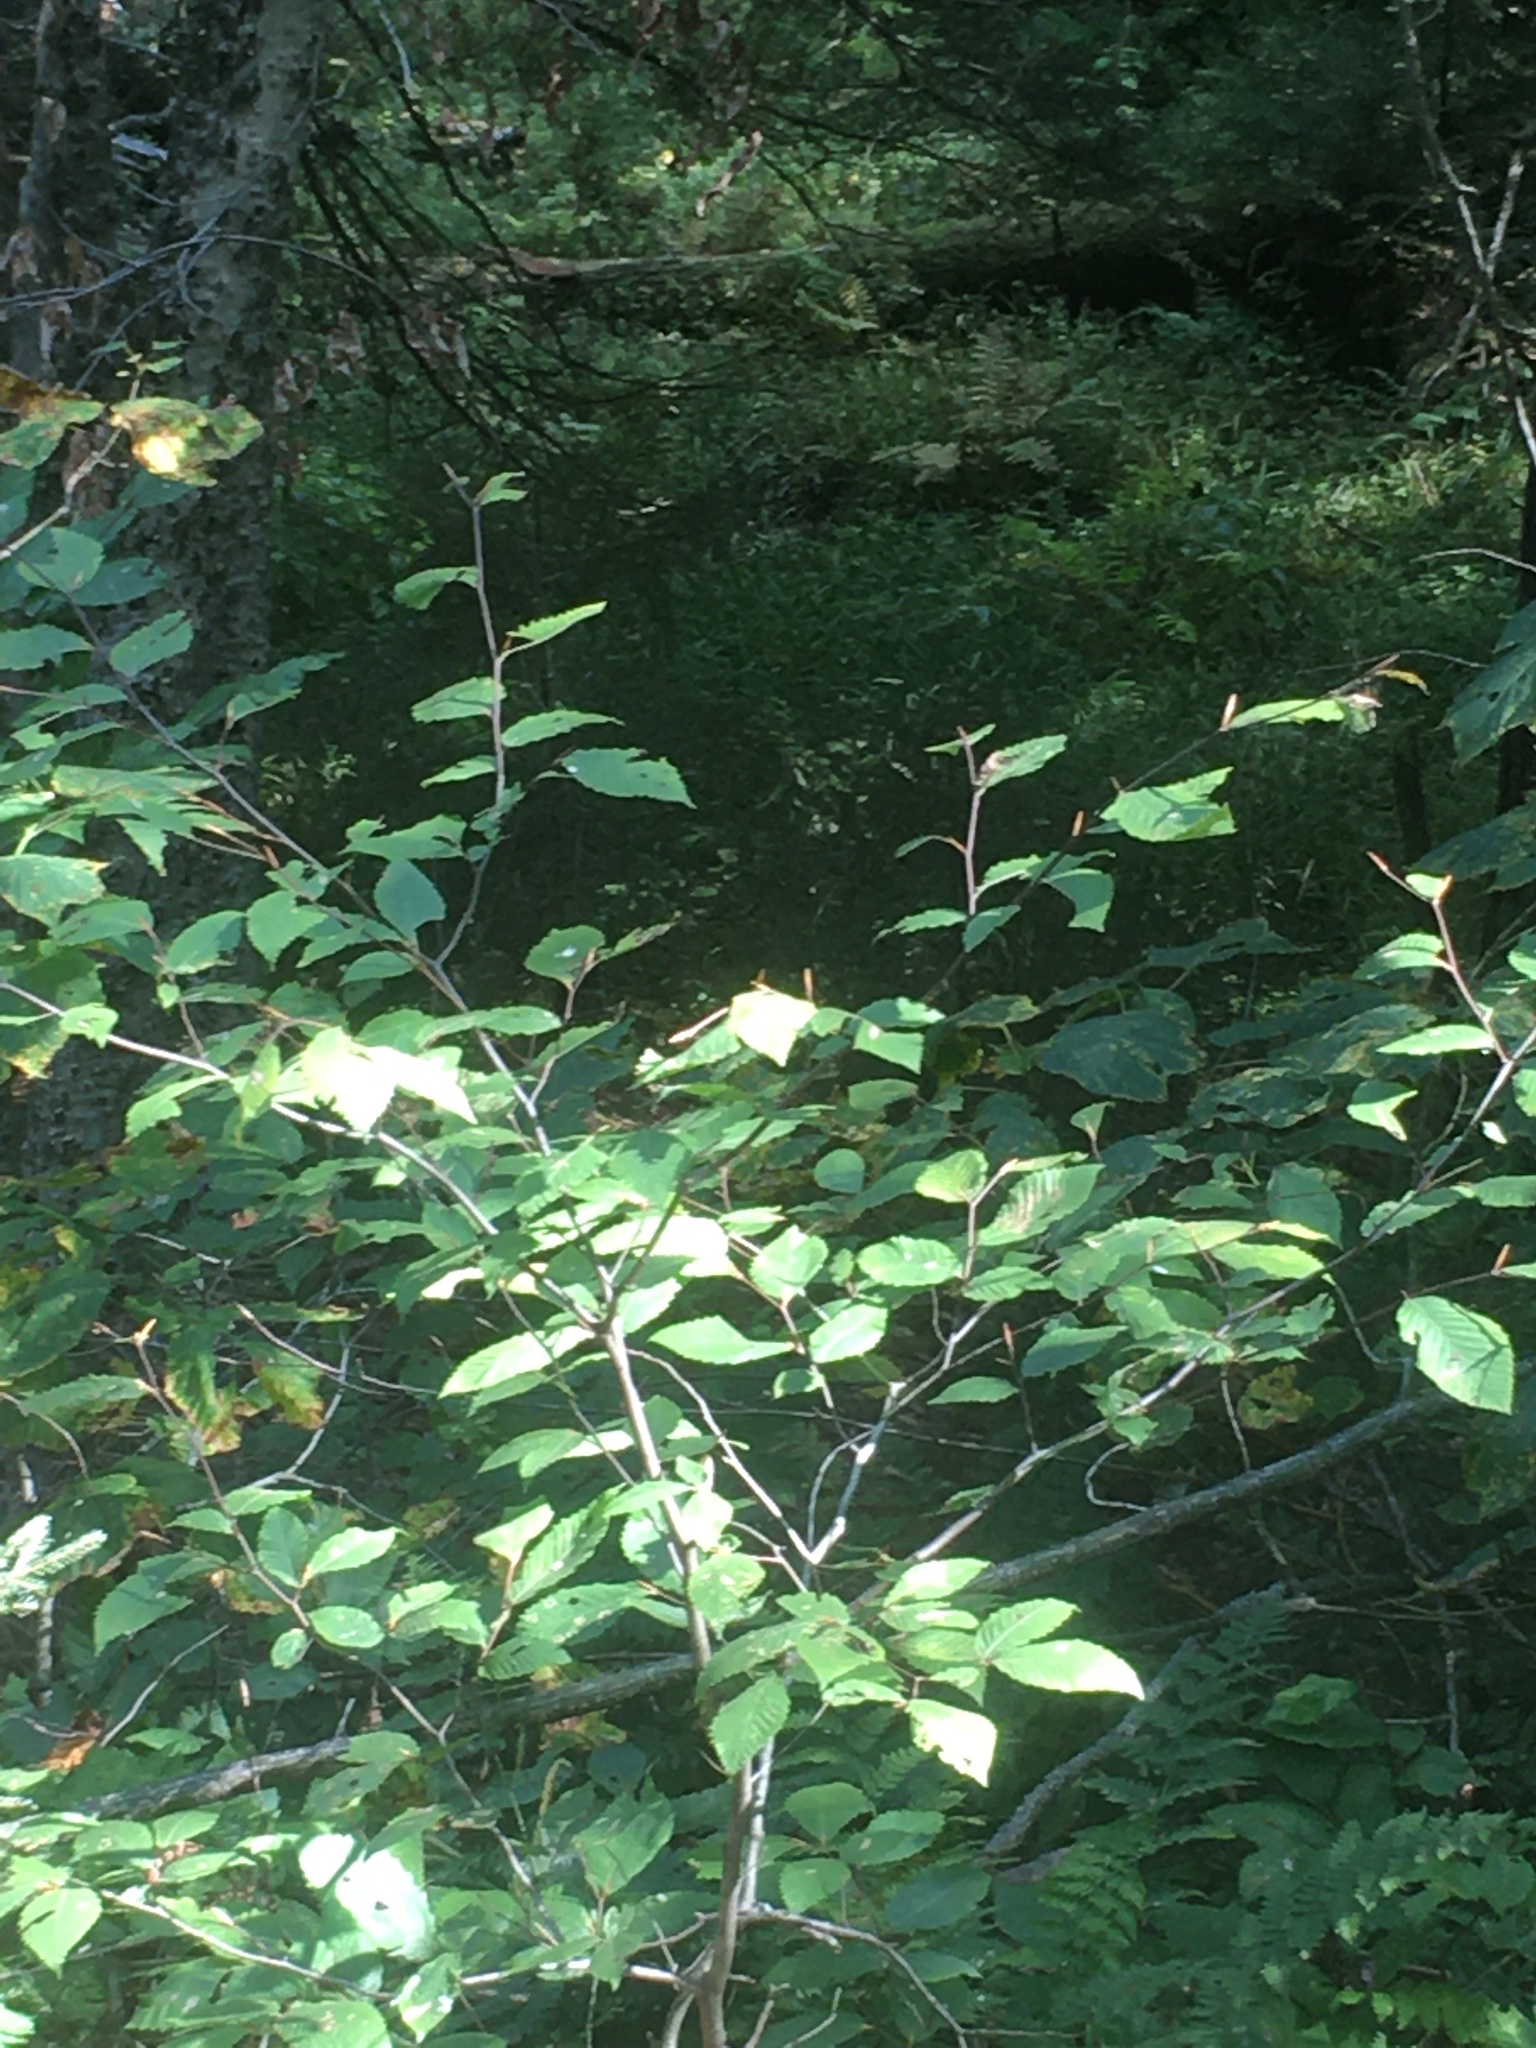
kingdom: Plantae
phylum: Tracheophyta
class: Magnoliopsida
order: Fagales
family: Fagaceae
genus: Fagus
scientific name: Fagus grandifolia
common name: American beech
